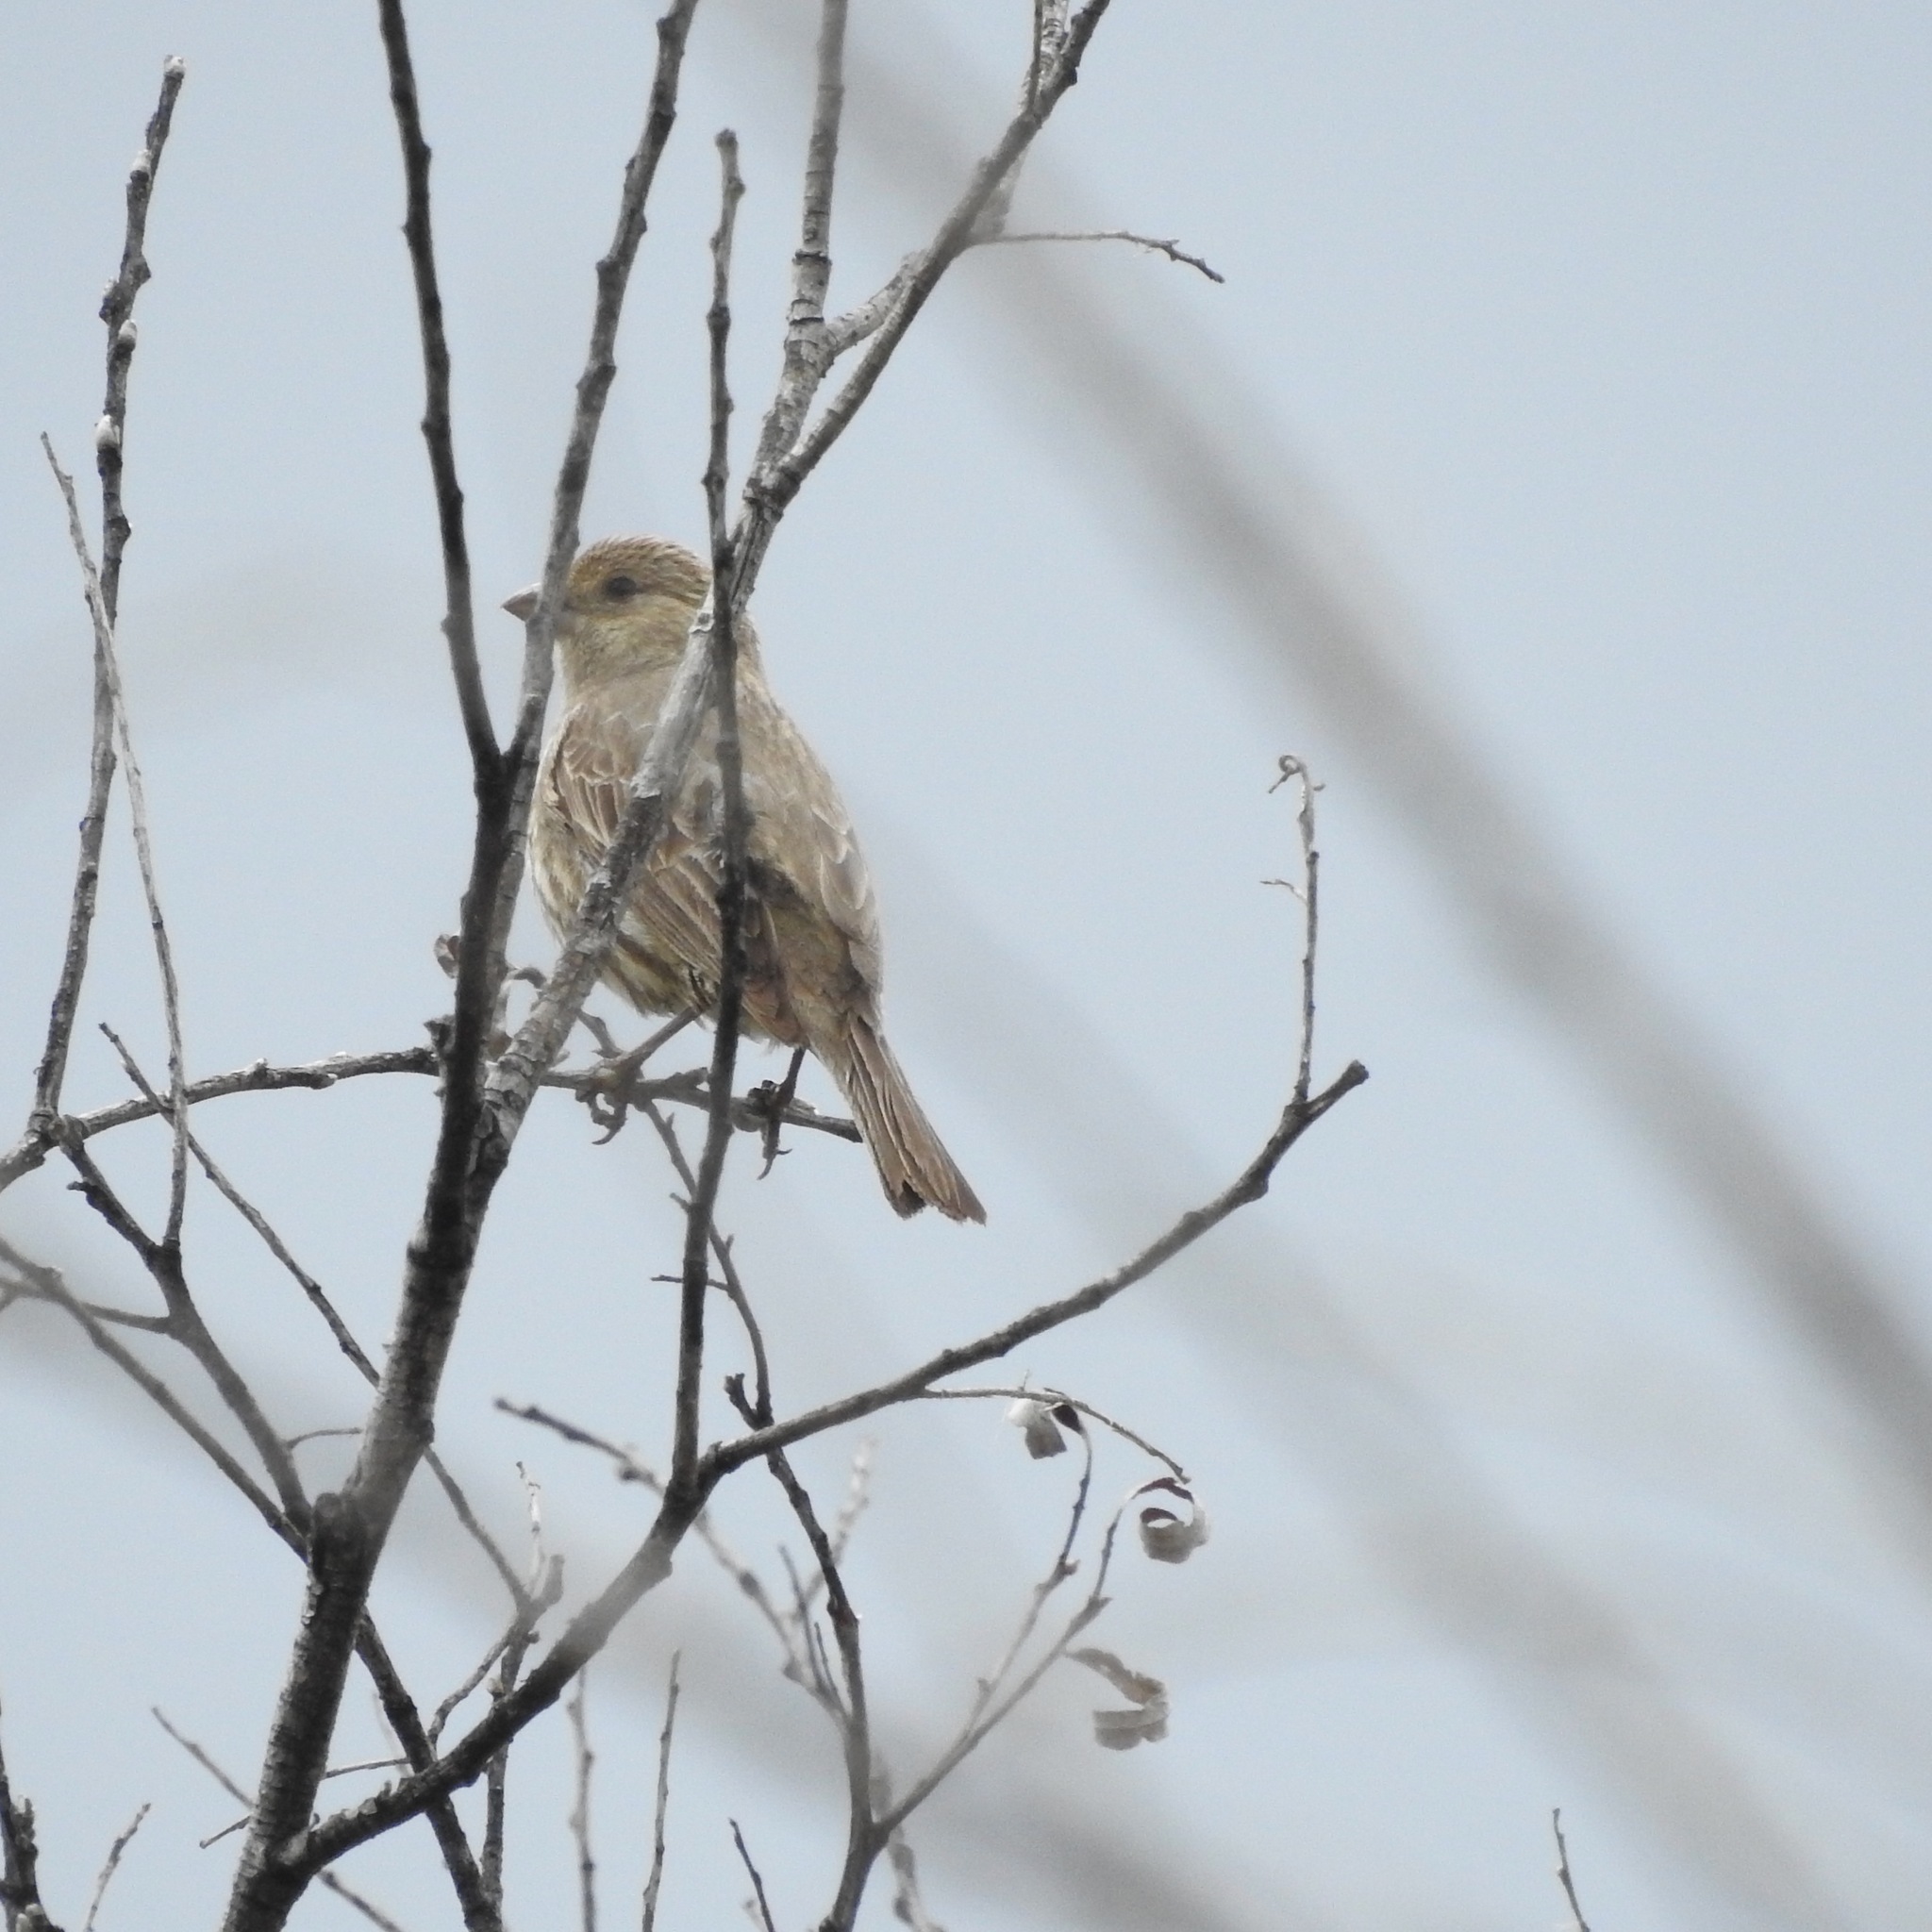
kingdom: Animalia
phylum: Chordata
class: Aves
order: Passeriformes
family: Fringillidae
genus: Haemorhous
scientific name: Haemorhous mexicanus
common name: House finch
